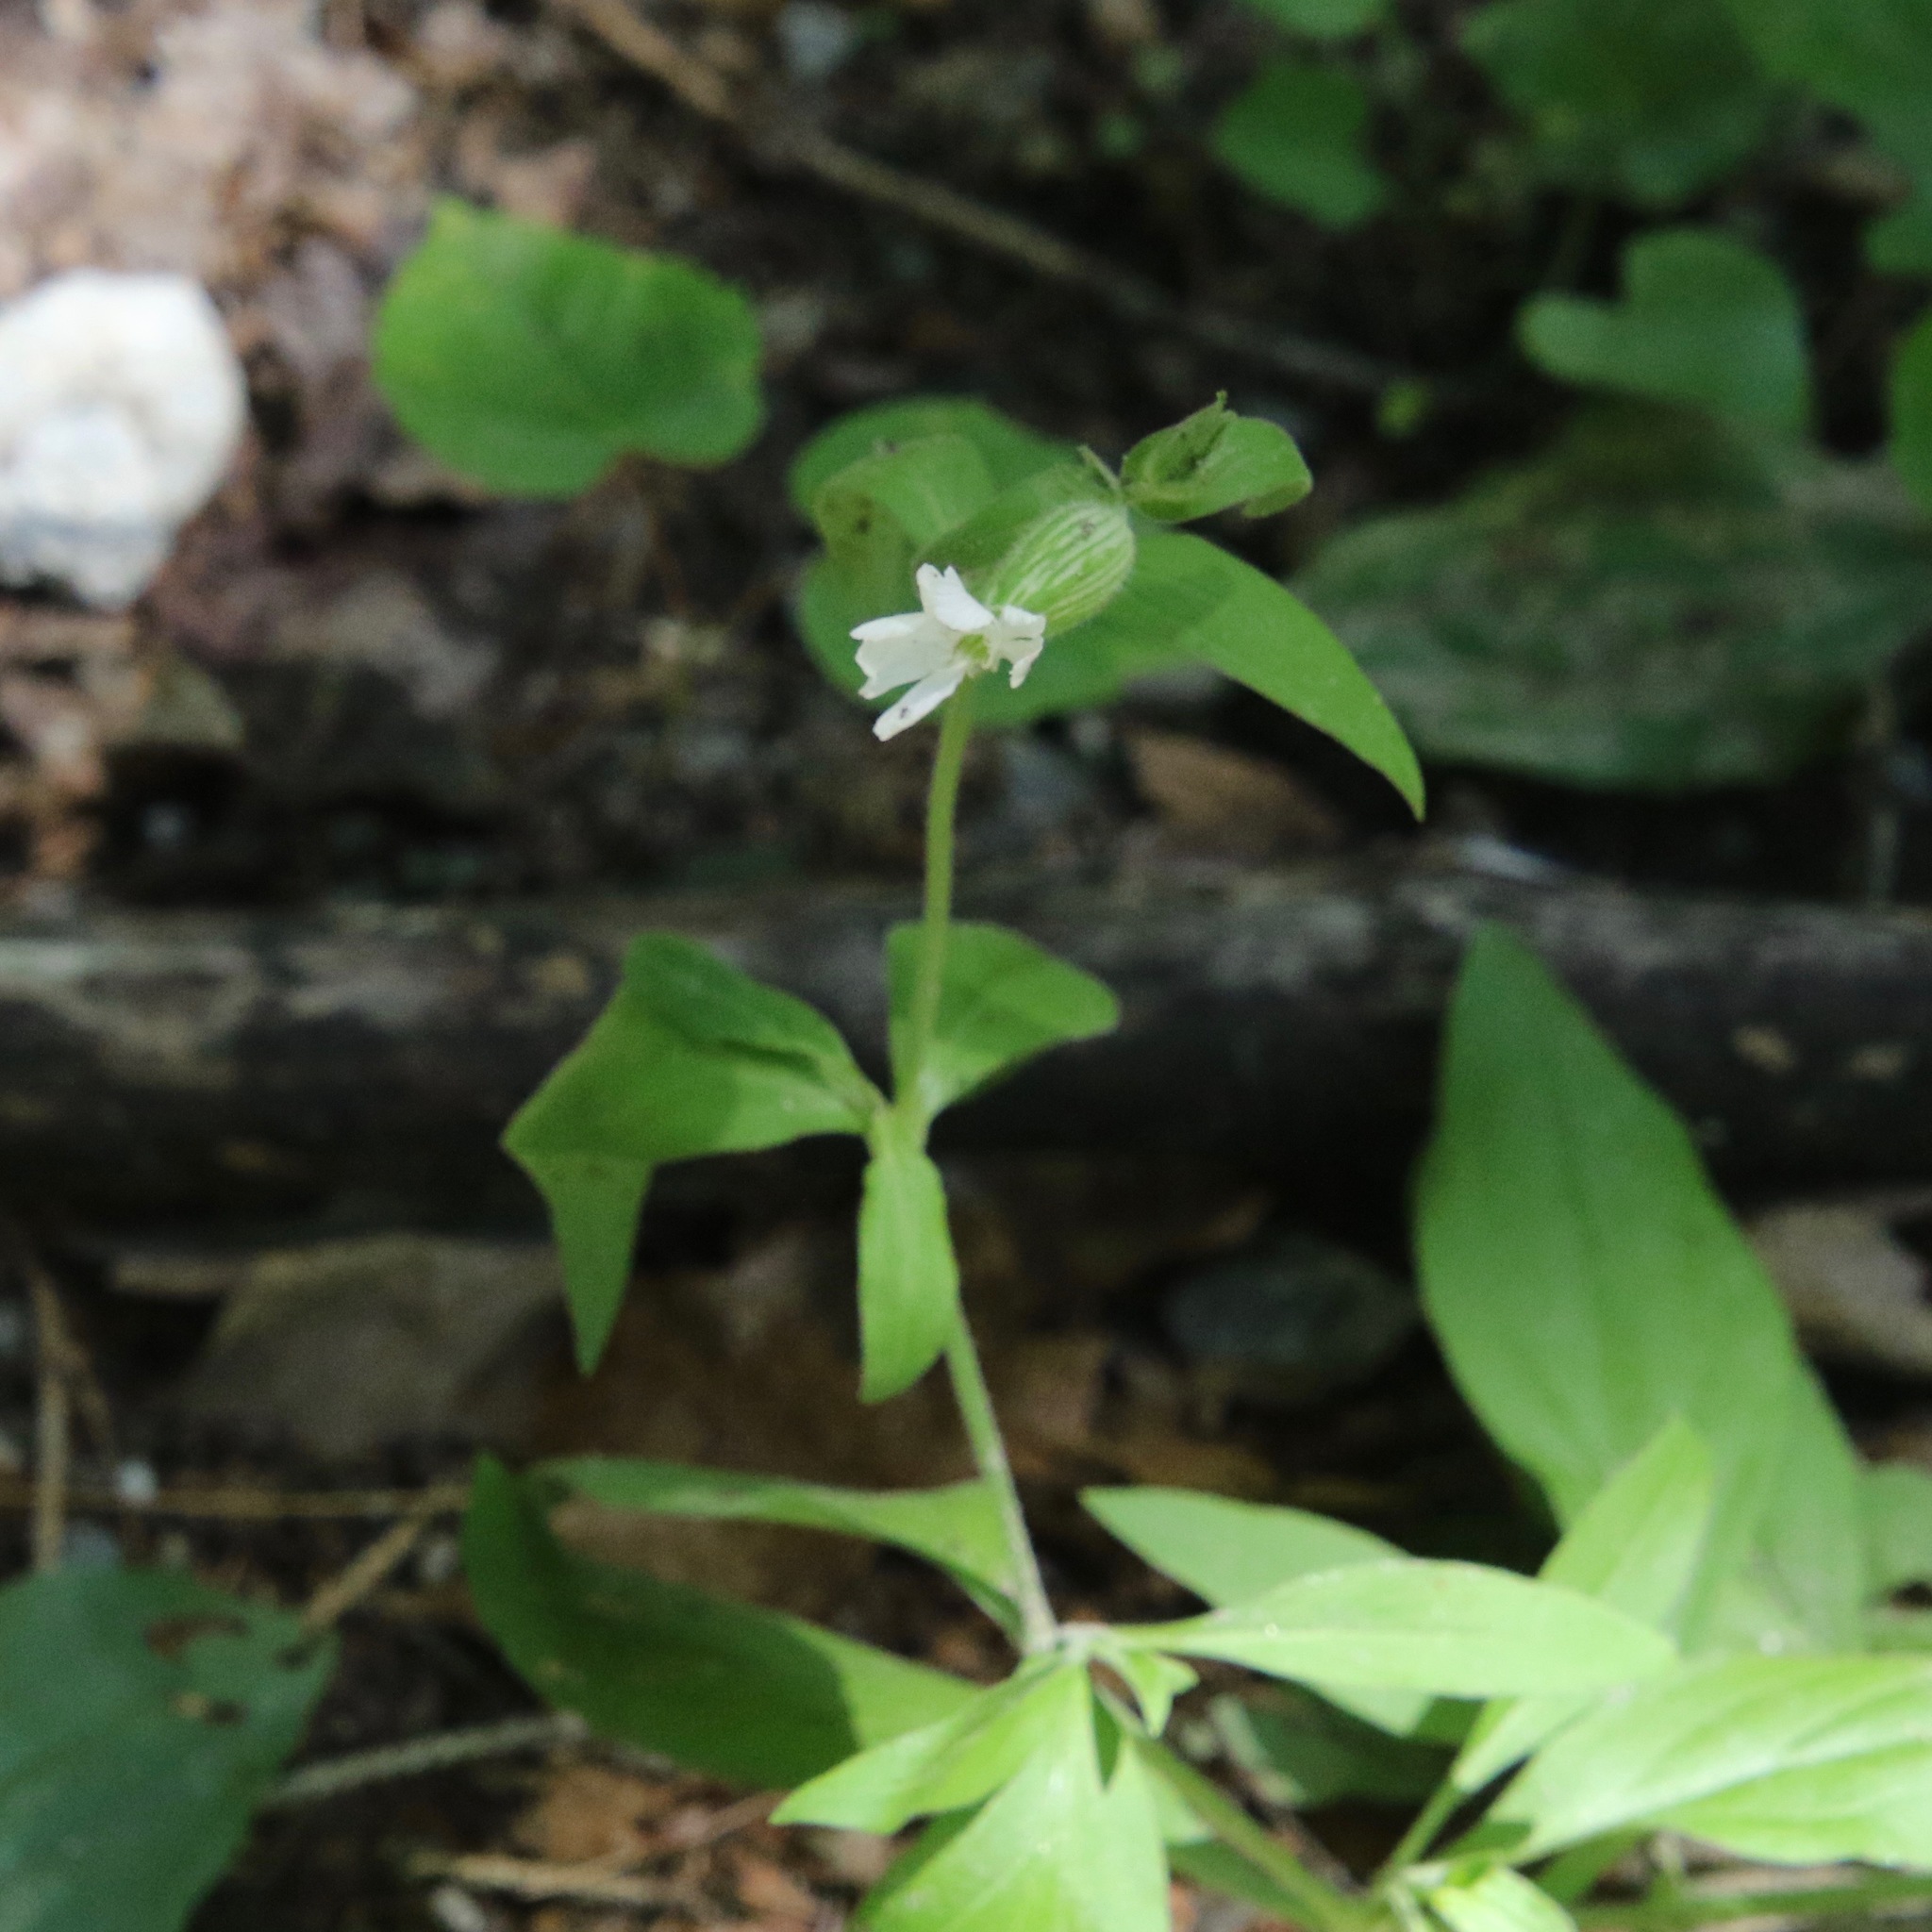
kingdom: Plantae
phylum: Tracheophyta
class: Magnoliopsida
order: Caryophyllales
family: Caryophyllaceae
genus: Silene
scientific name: Silene latifolia
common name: White campion
